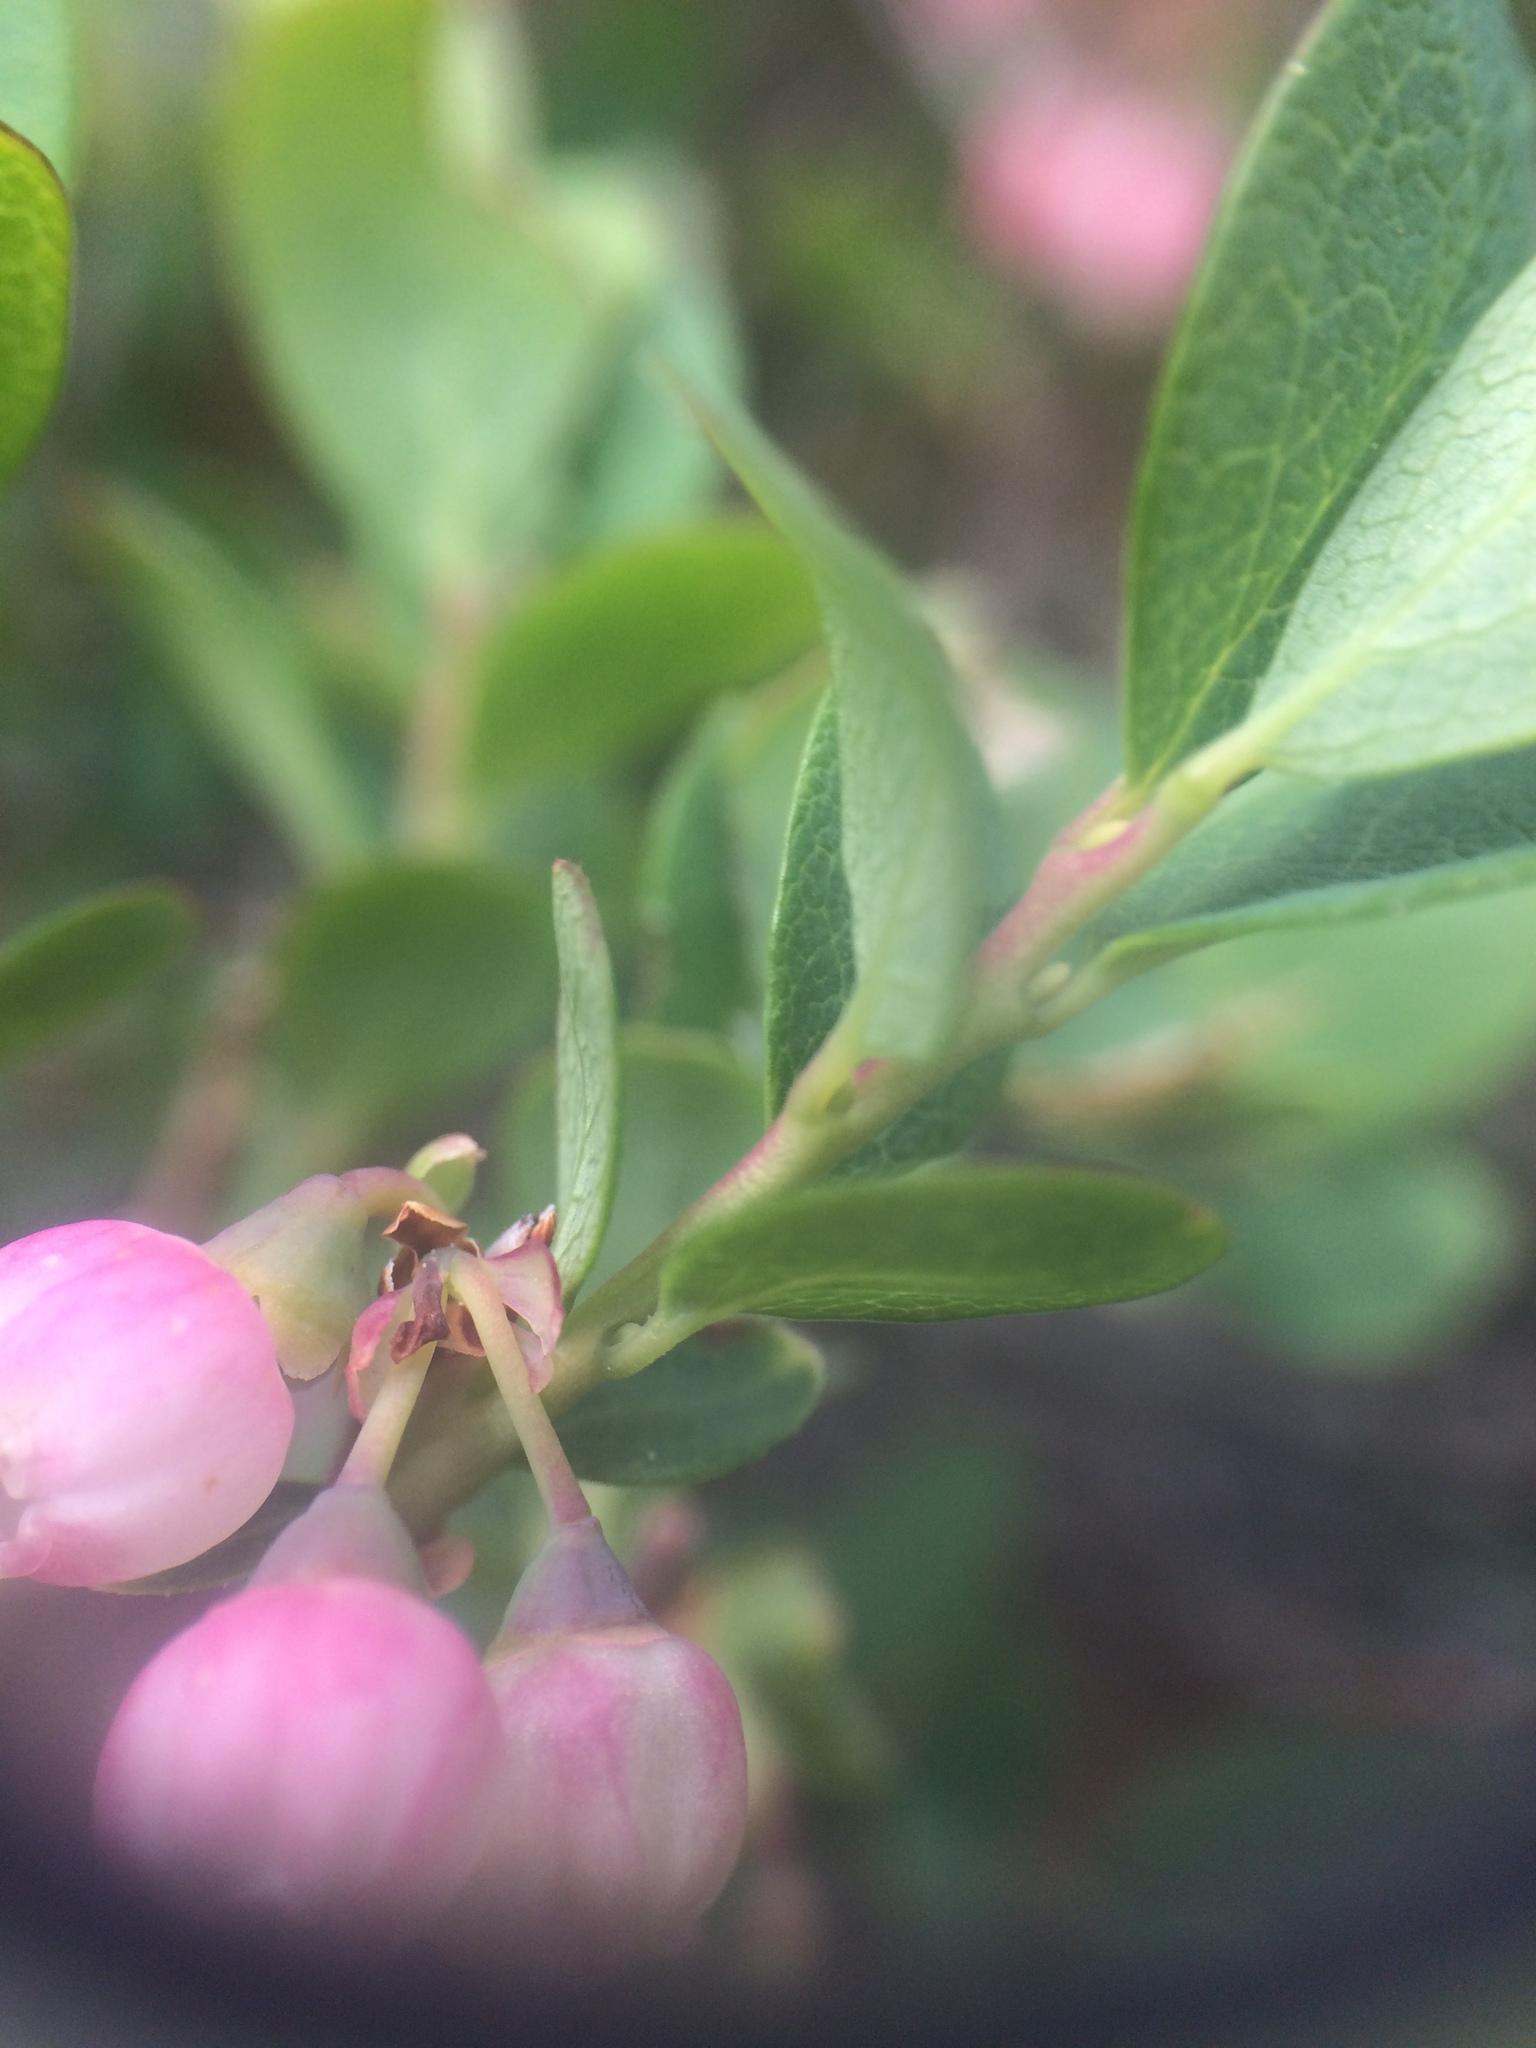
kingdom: Plantae
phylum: Tracheophyta
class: Magnoliopsida
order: Ericales
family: Ericaceae
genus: Vaccinium
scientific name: Vaccinium uliginosum
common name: Bog bilberry
